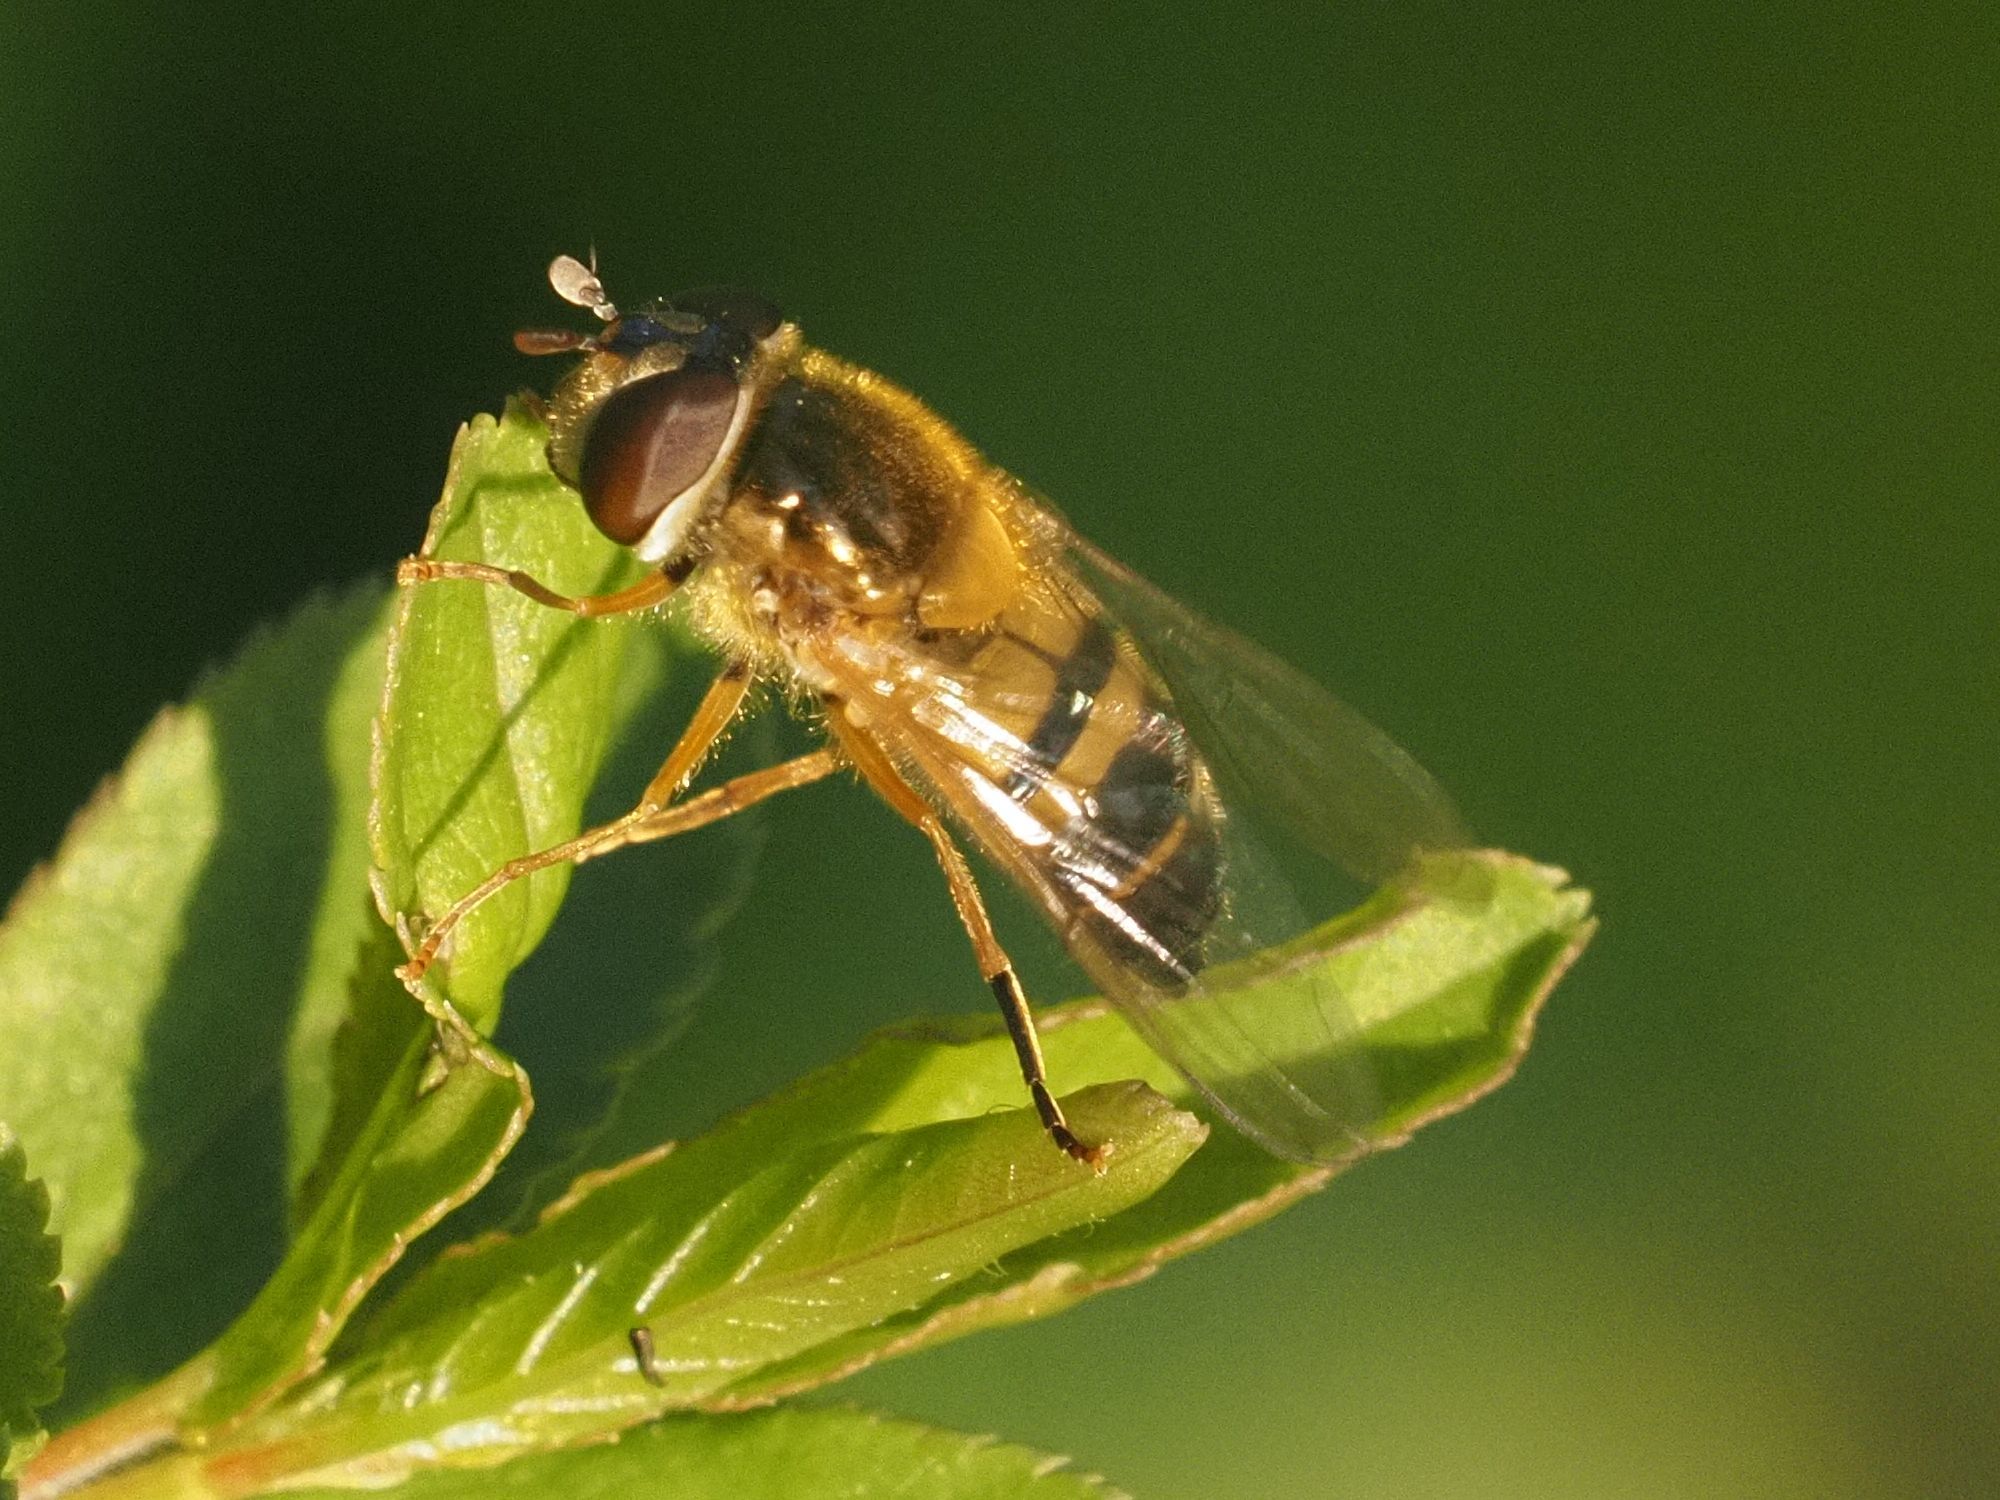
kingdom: Animalia
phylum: Arthropoda
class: Insecta
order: Diptera
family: Syrphidae
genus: Epistrophe
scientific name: Epistrophe eligans
